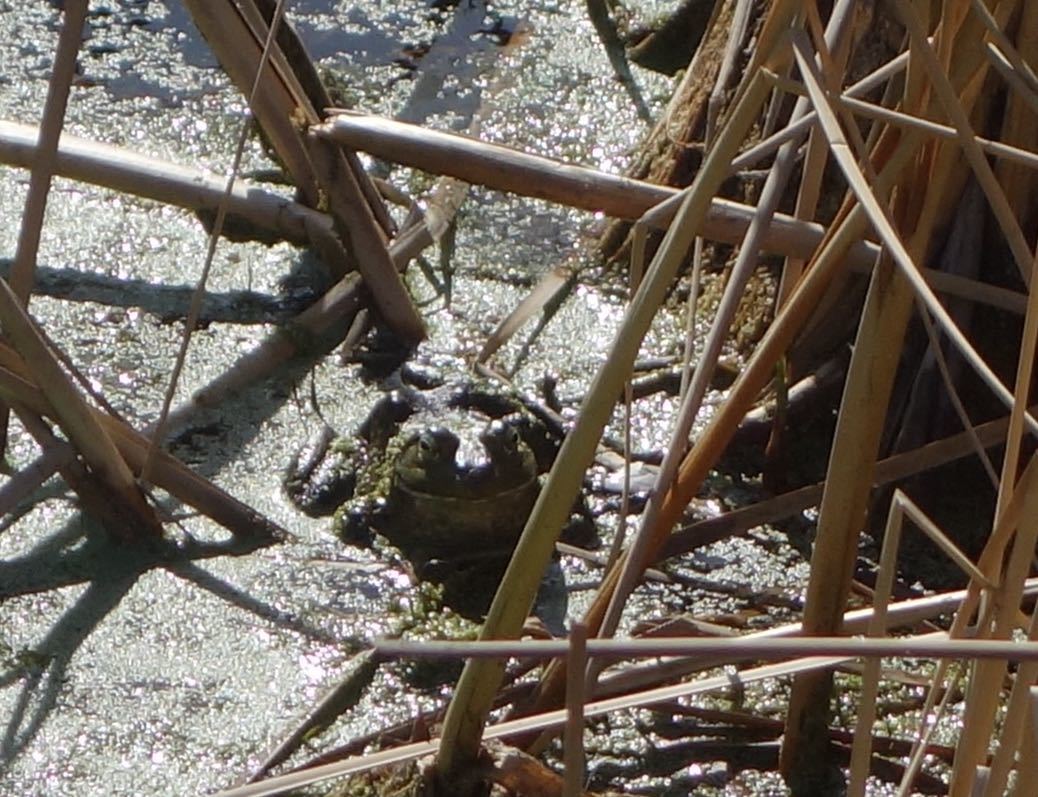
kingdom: Animalia
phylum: Chordata
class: Amphibia
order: Anura
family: Ranidae
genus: Lithobates
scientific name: Lithobates catesbeianus
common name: American bullfrog
